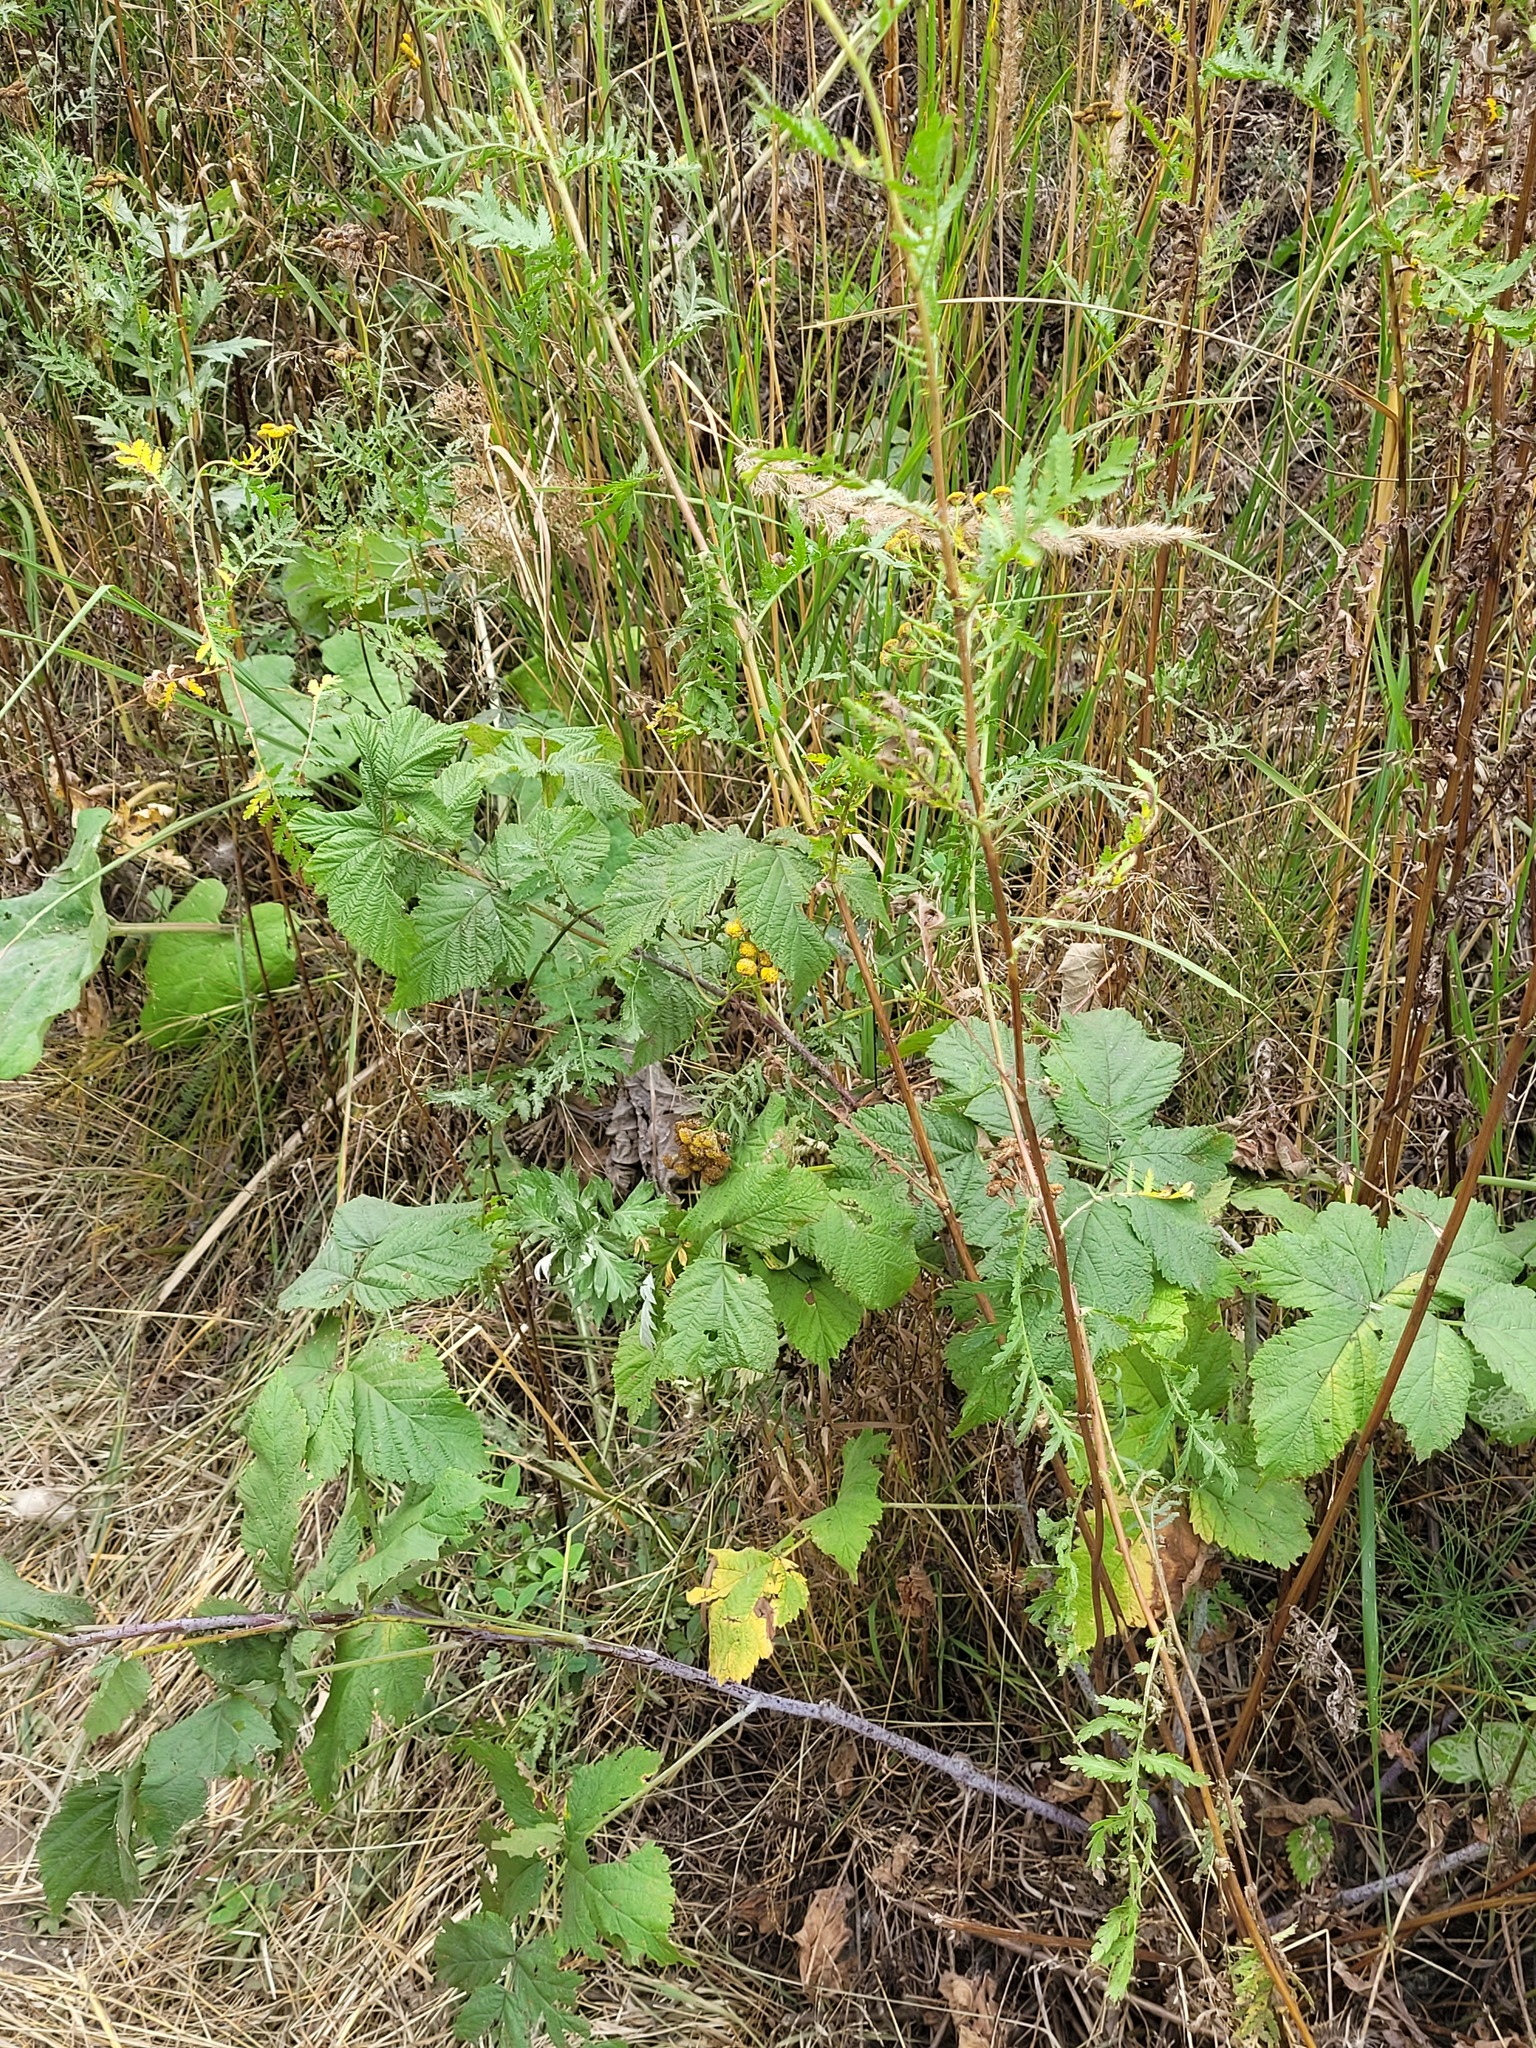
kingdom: Plantae
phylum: Tracheophyta
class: Magnoliopsida
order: Asterales
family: Asteraceae
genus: Tanacetum
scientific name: Tanacetum vulgare
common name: Common tansy
